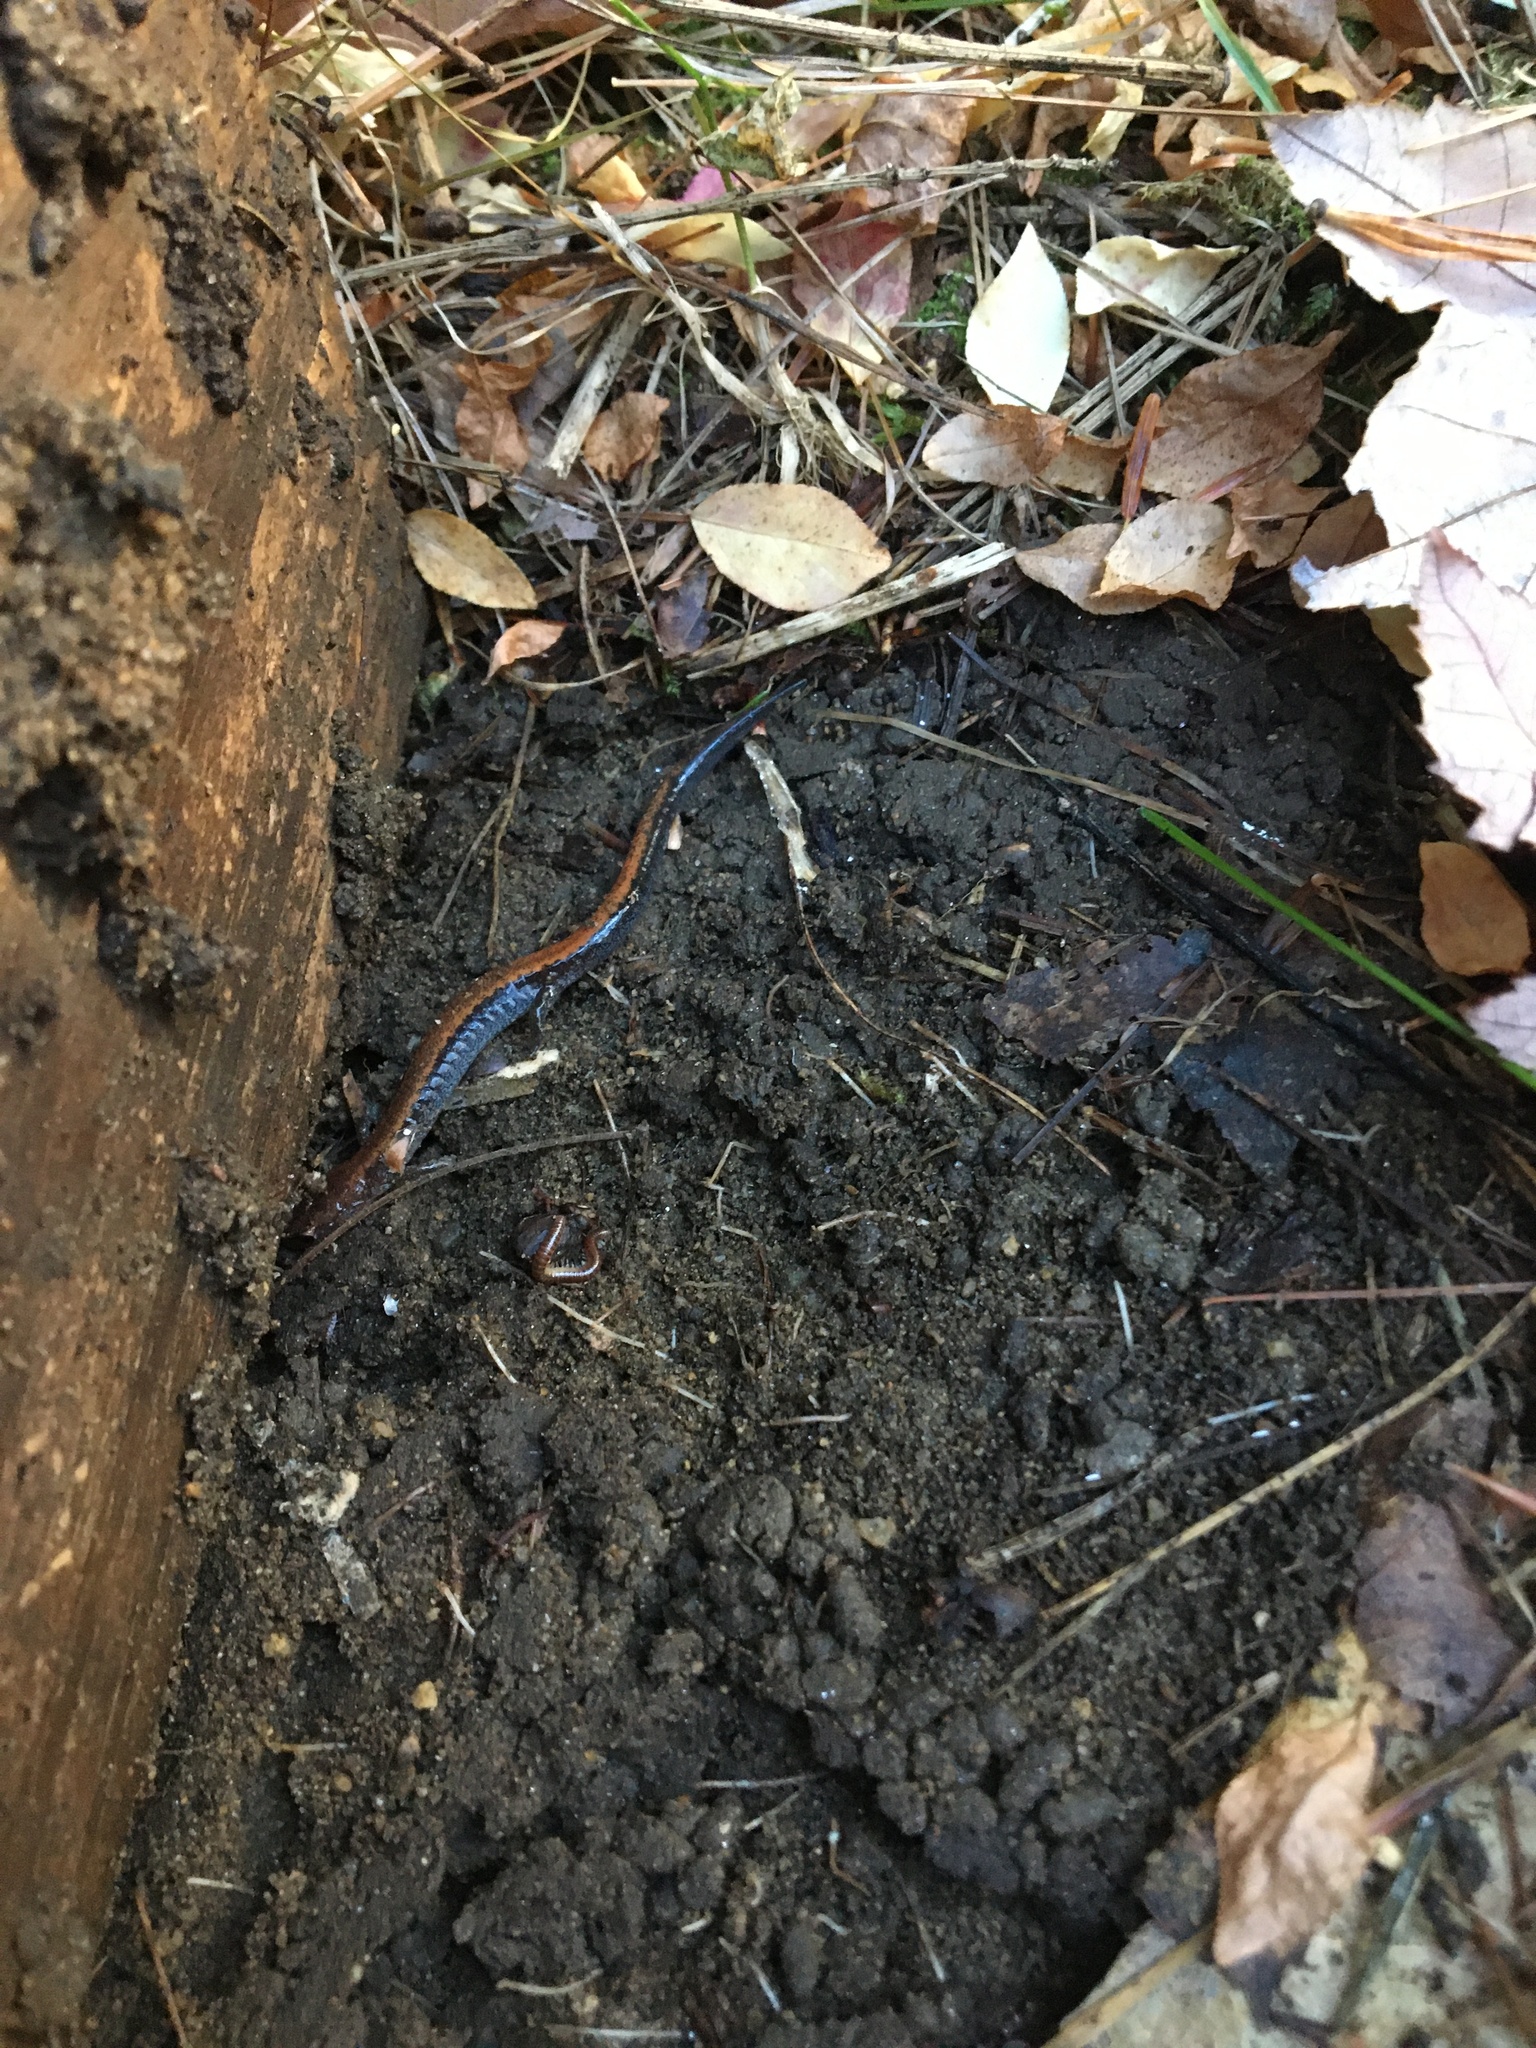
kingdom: Animalia
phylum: Chordata
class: Amphibia
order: Caudata
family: Plethodontidae
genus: Plethodon
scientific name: Plethodon cinereus
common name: Redback salamander
